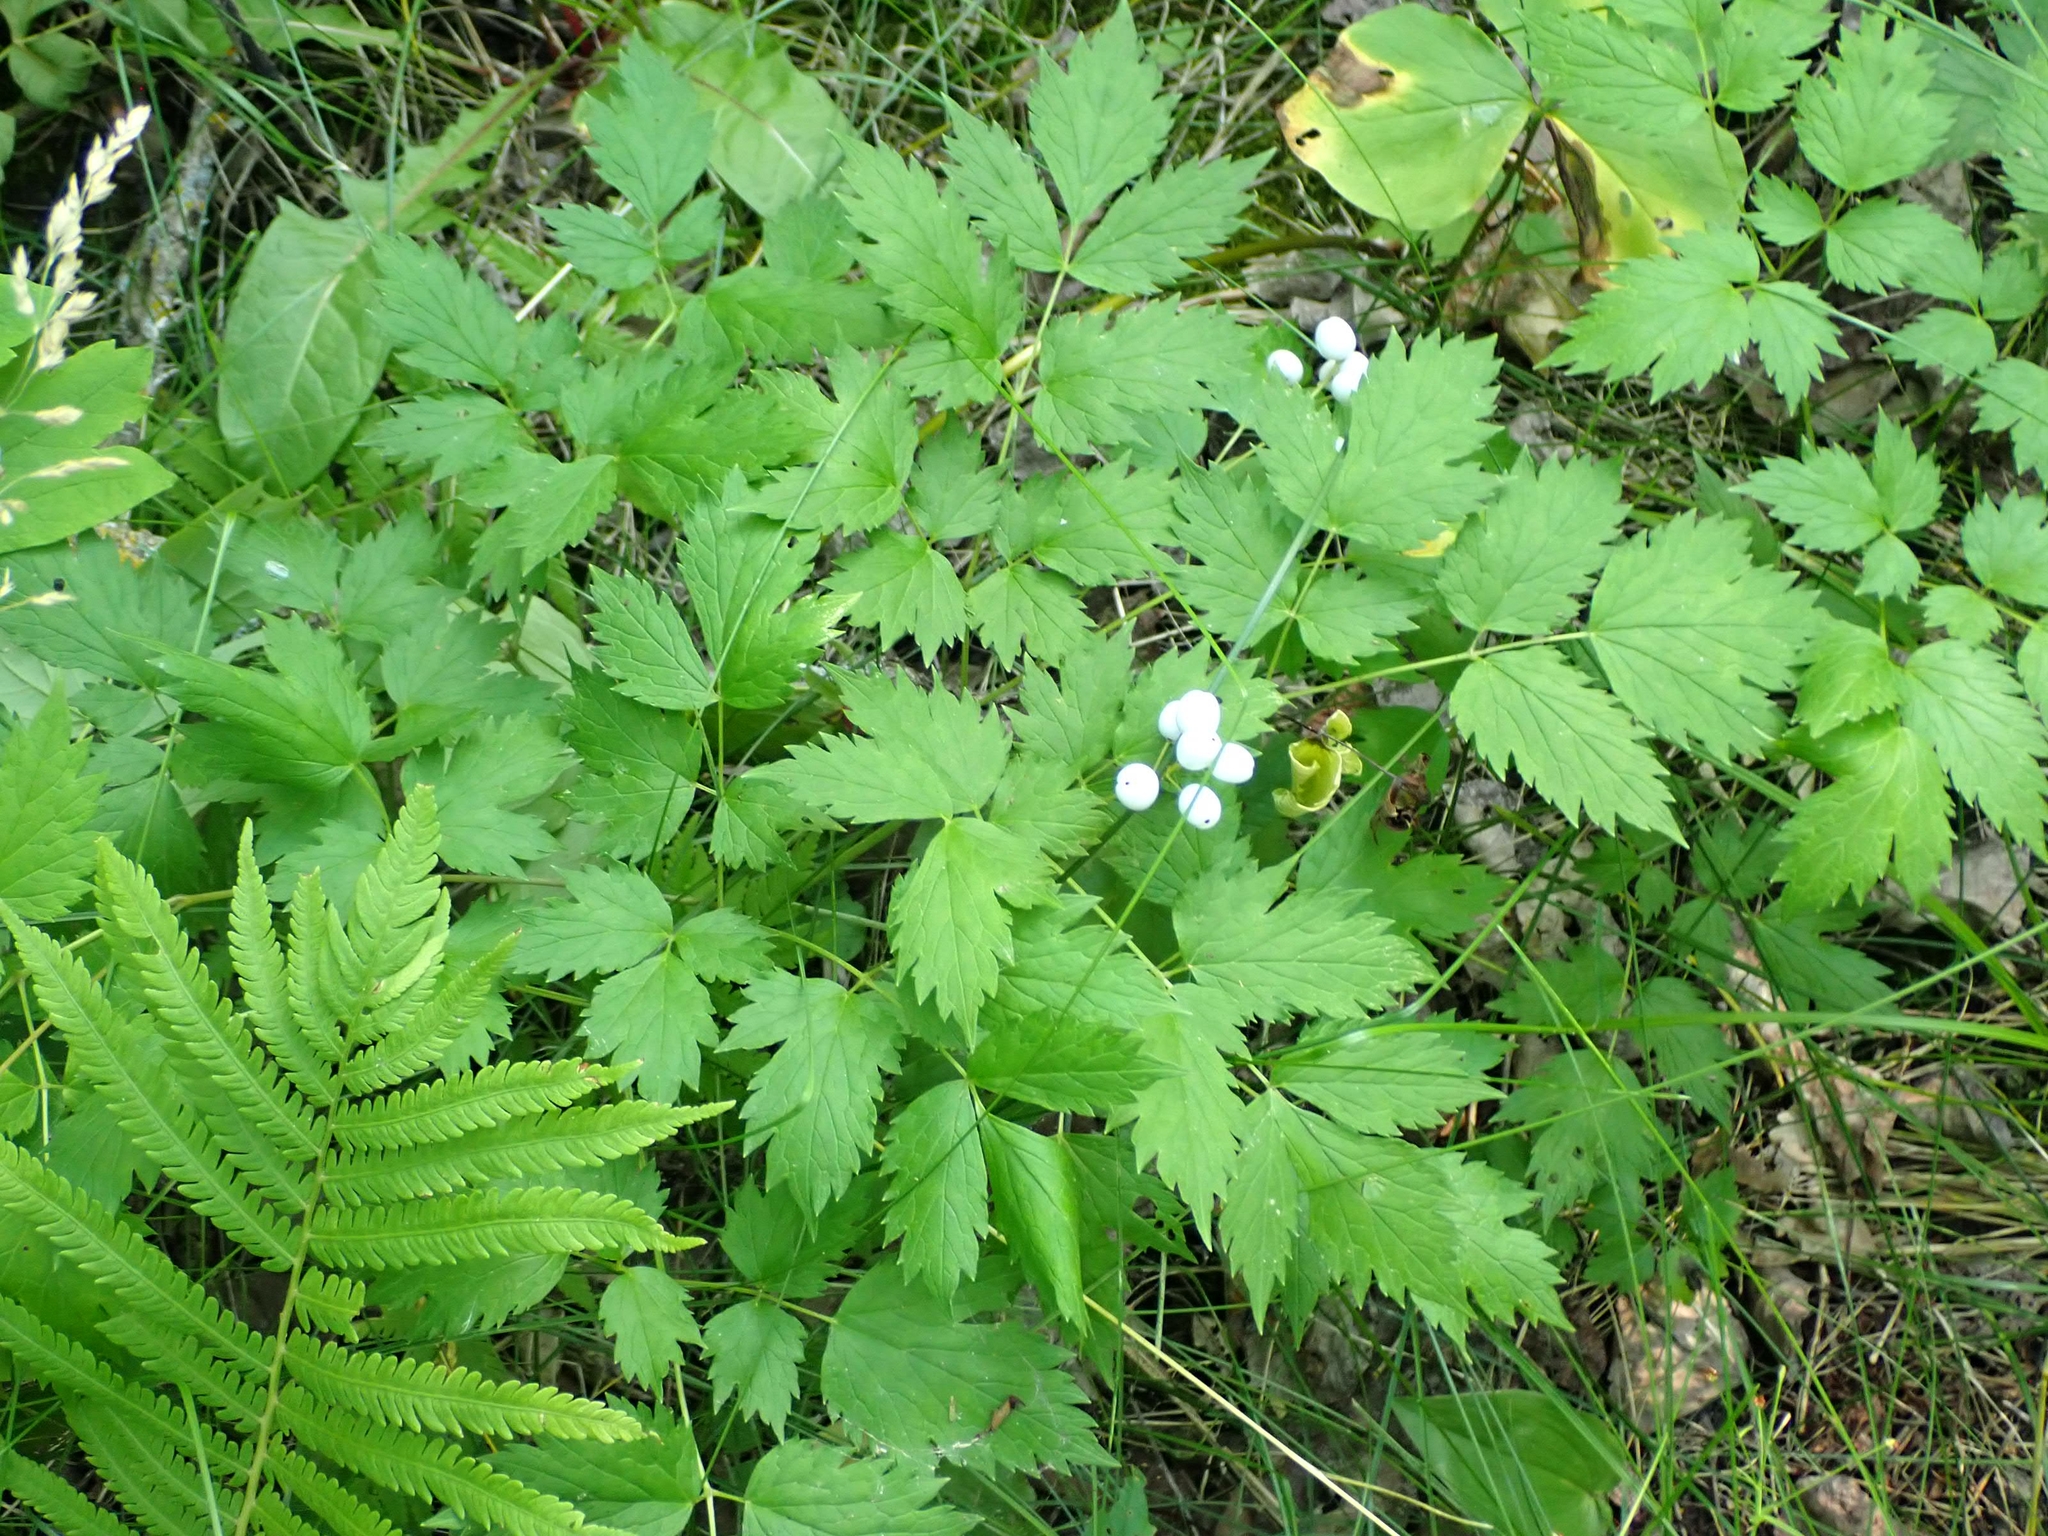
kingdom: Plantae
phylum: Tracheophyta
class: Magnoliopsida
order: Ranunculales
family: Ranunculaceae
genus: Actaea
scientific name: Actaea rubra
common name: Red baneberry
